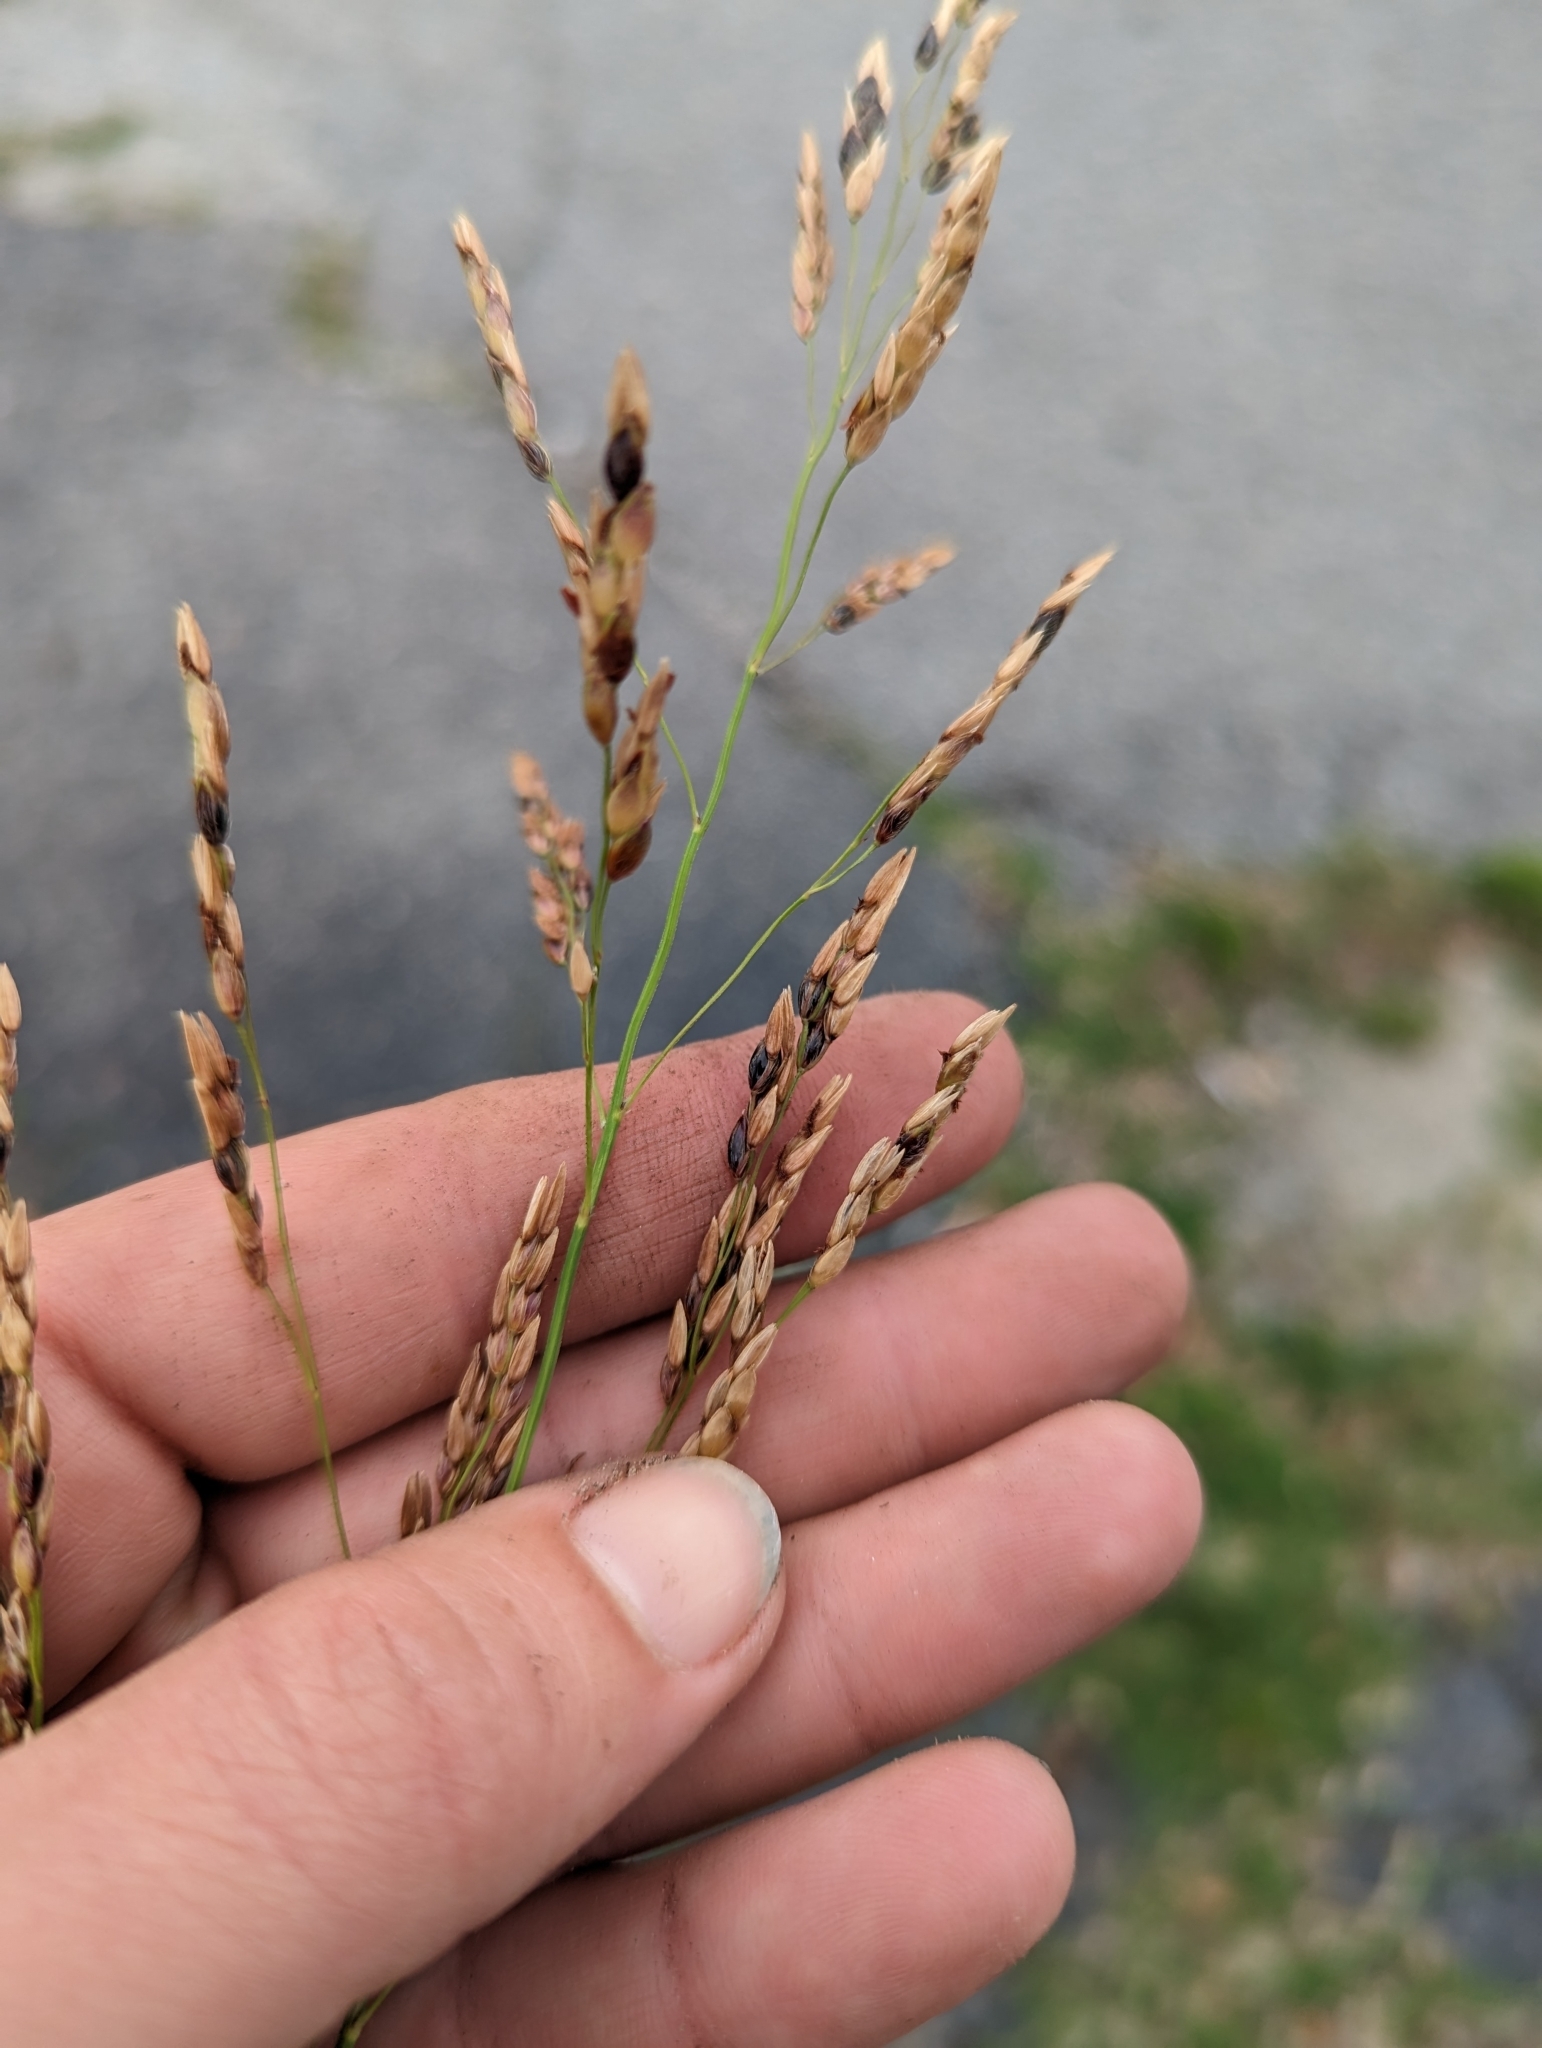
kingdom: Plantae
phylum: Tracheophyta
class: Liliopsida
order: Poales
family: Poaceae
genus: Sorghum
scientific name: Sorghum halepense
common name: Johnson-grass
